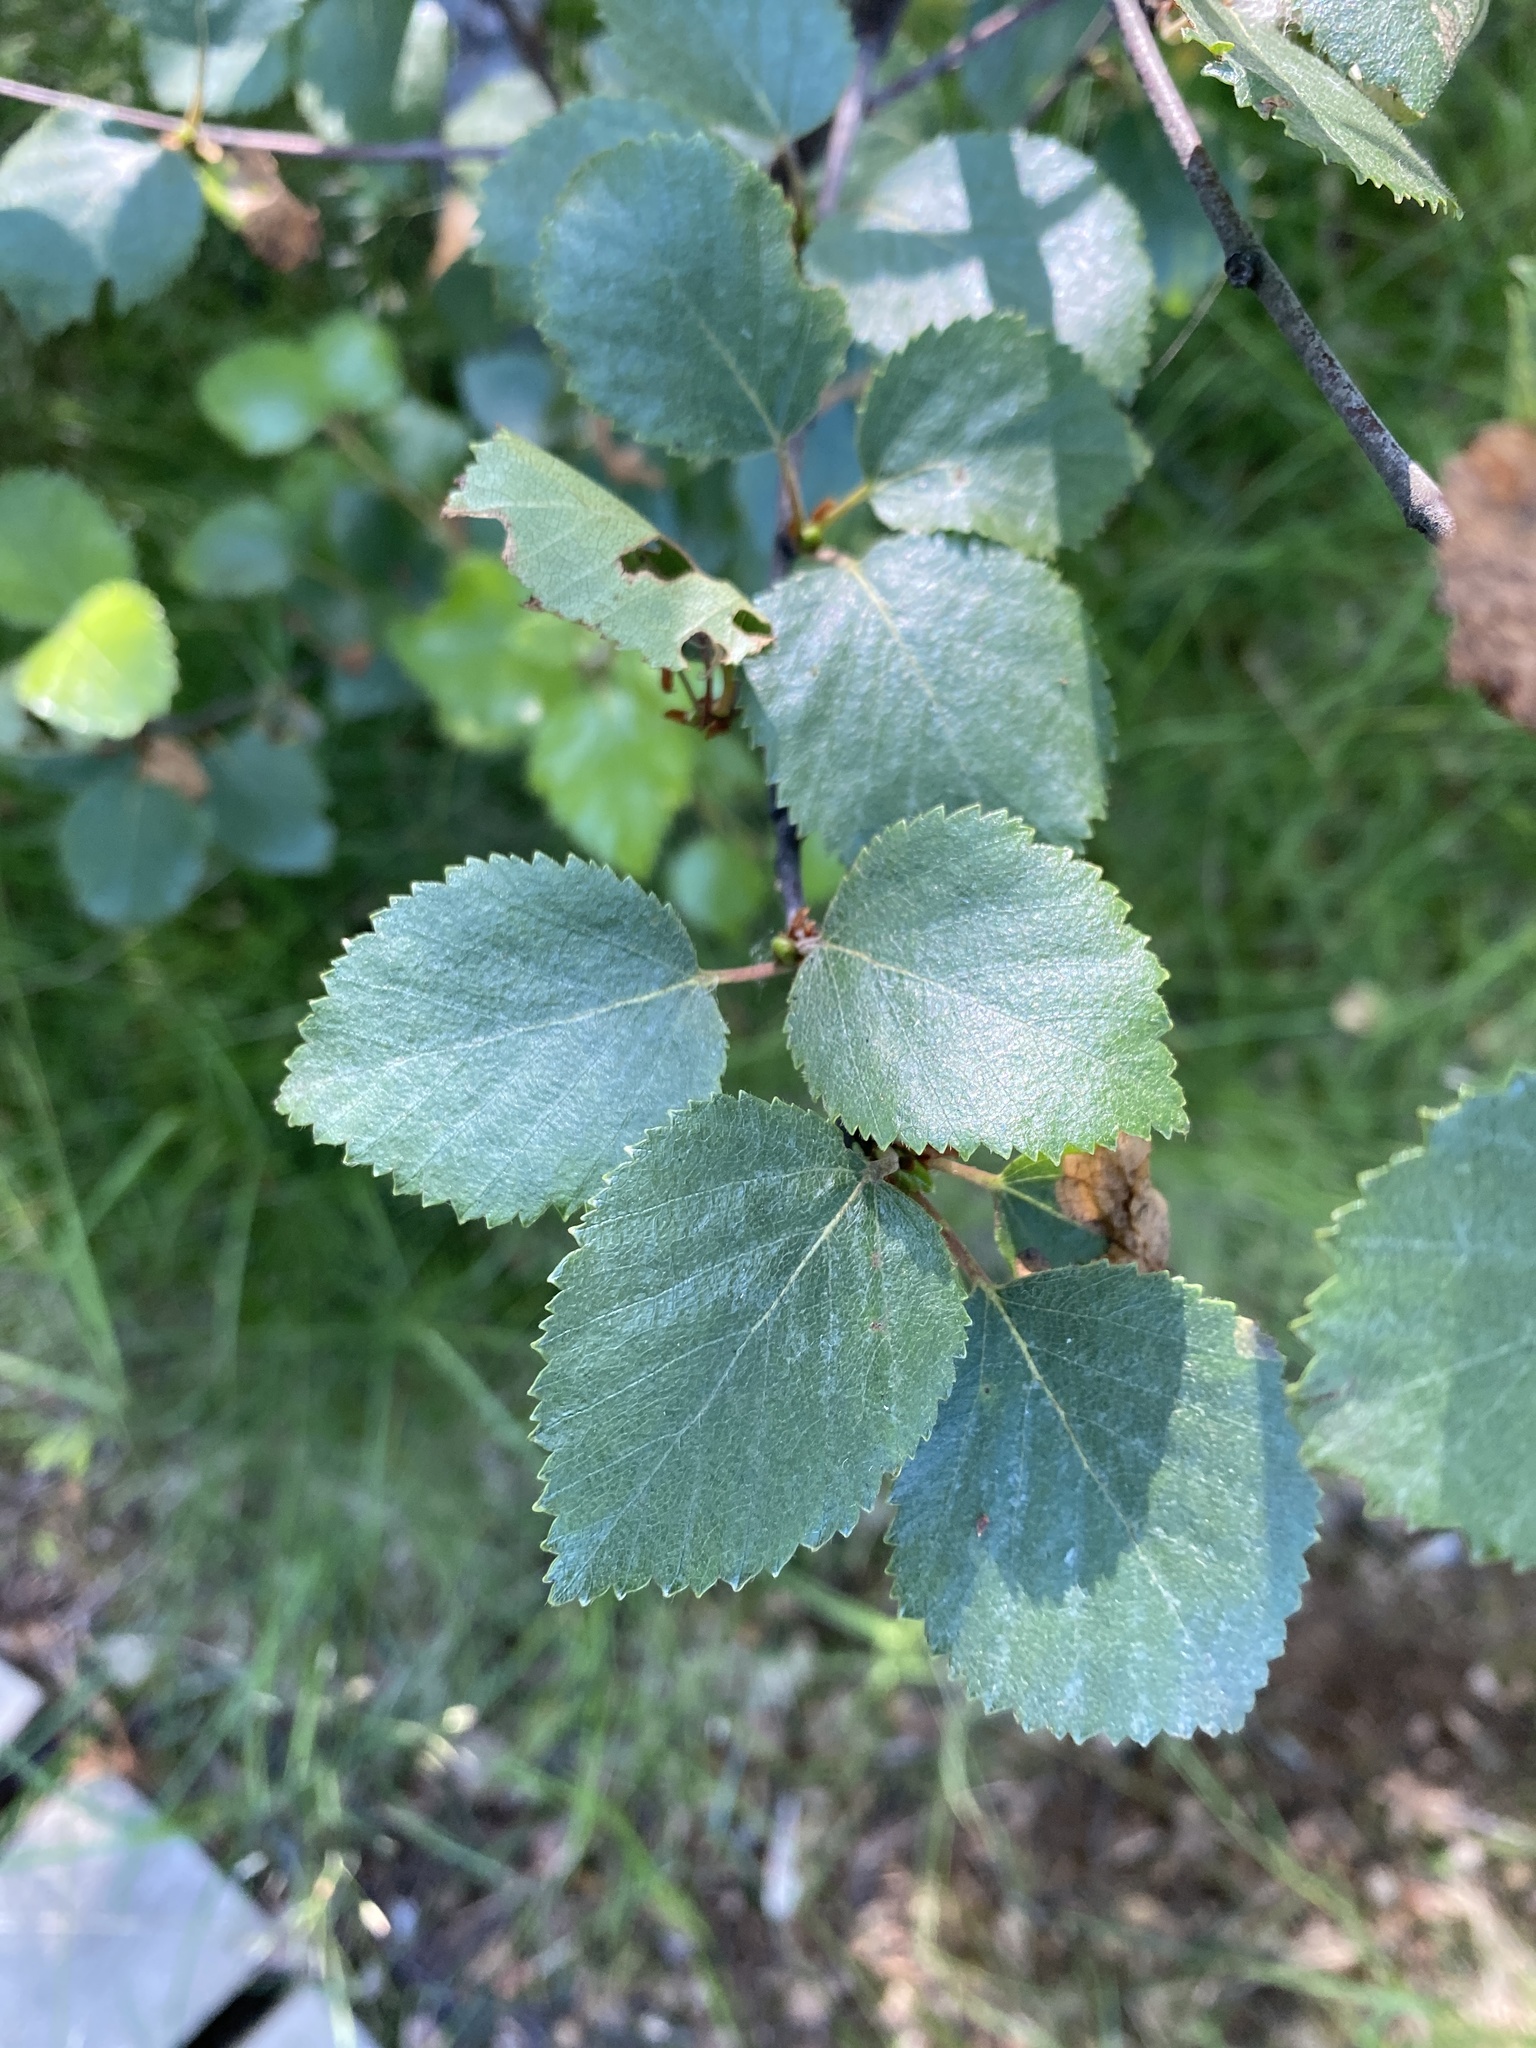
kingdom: Plantae
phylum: Tracheophyta
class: Magnoliopsida
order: Fagales
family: Betulaceae
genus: Betula
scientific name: Betula pubescens
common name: Downy birch
